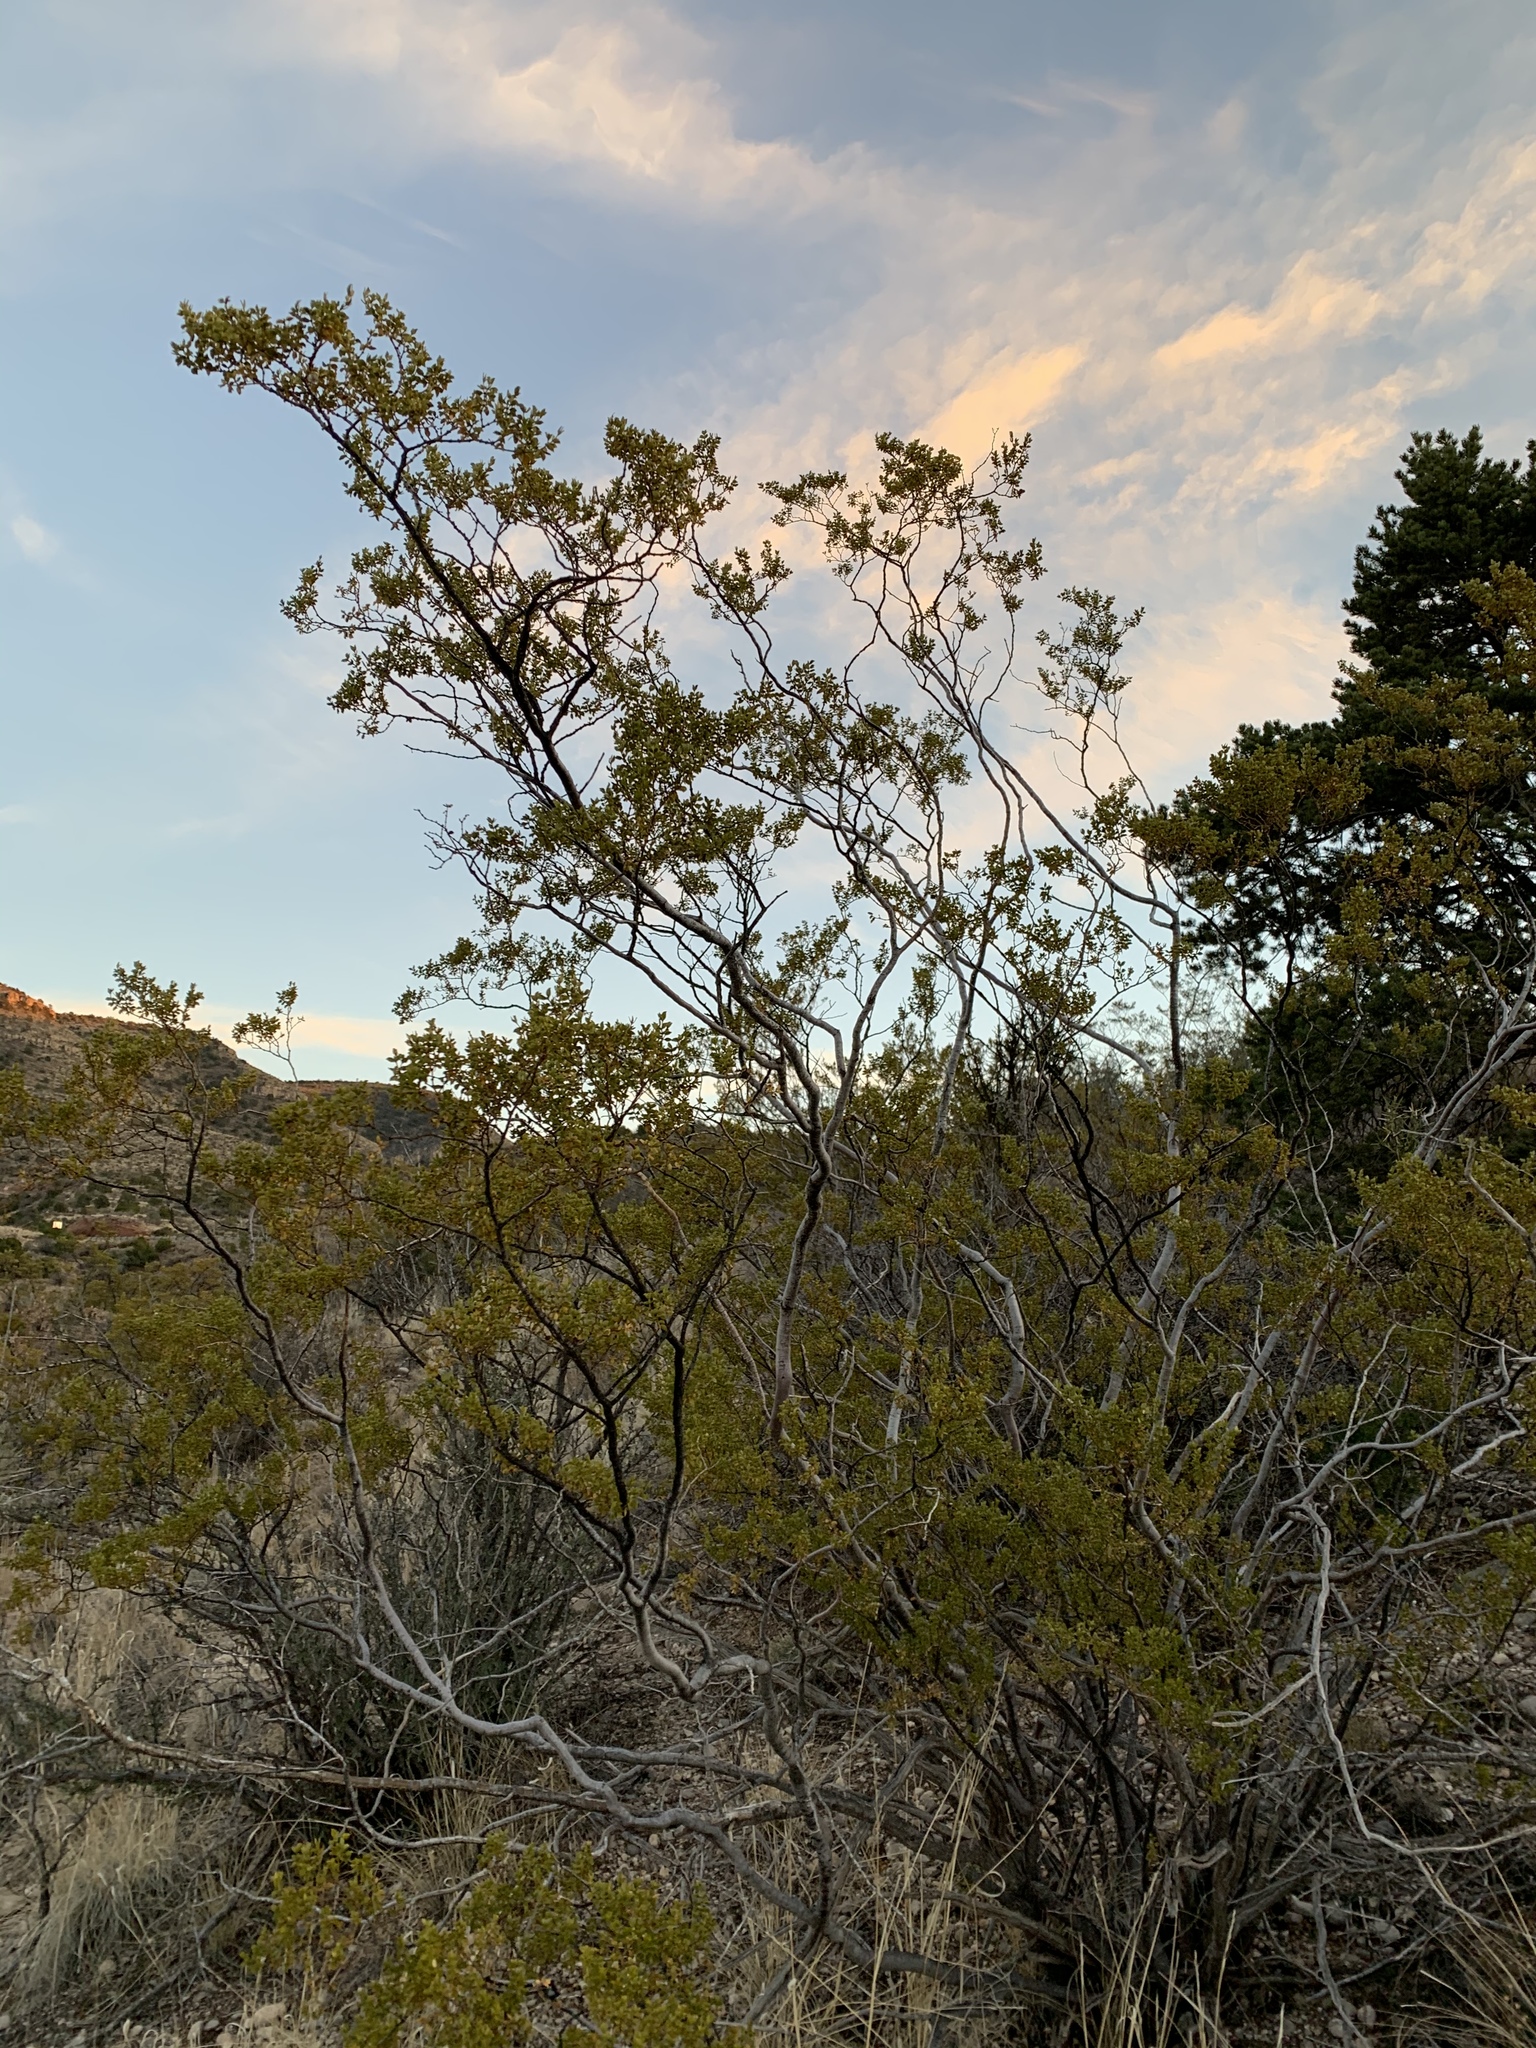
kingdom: Plantae
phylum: Tracheophyta
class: Magnoliopsida
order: Zygophyllales
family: Zygophyllaceae
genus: Larrea
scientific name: Larrea tridentata
